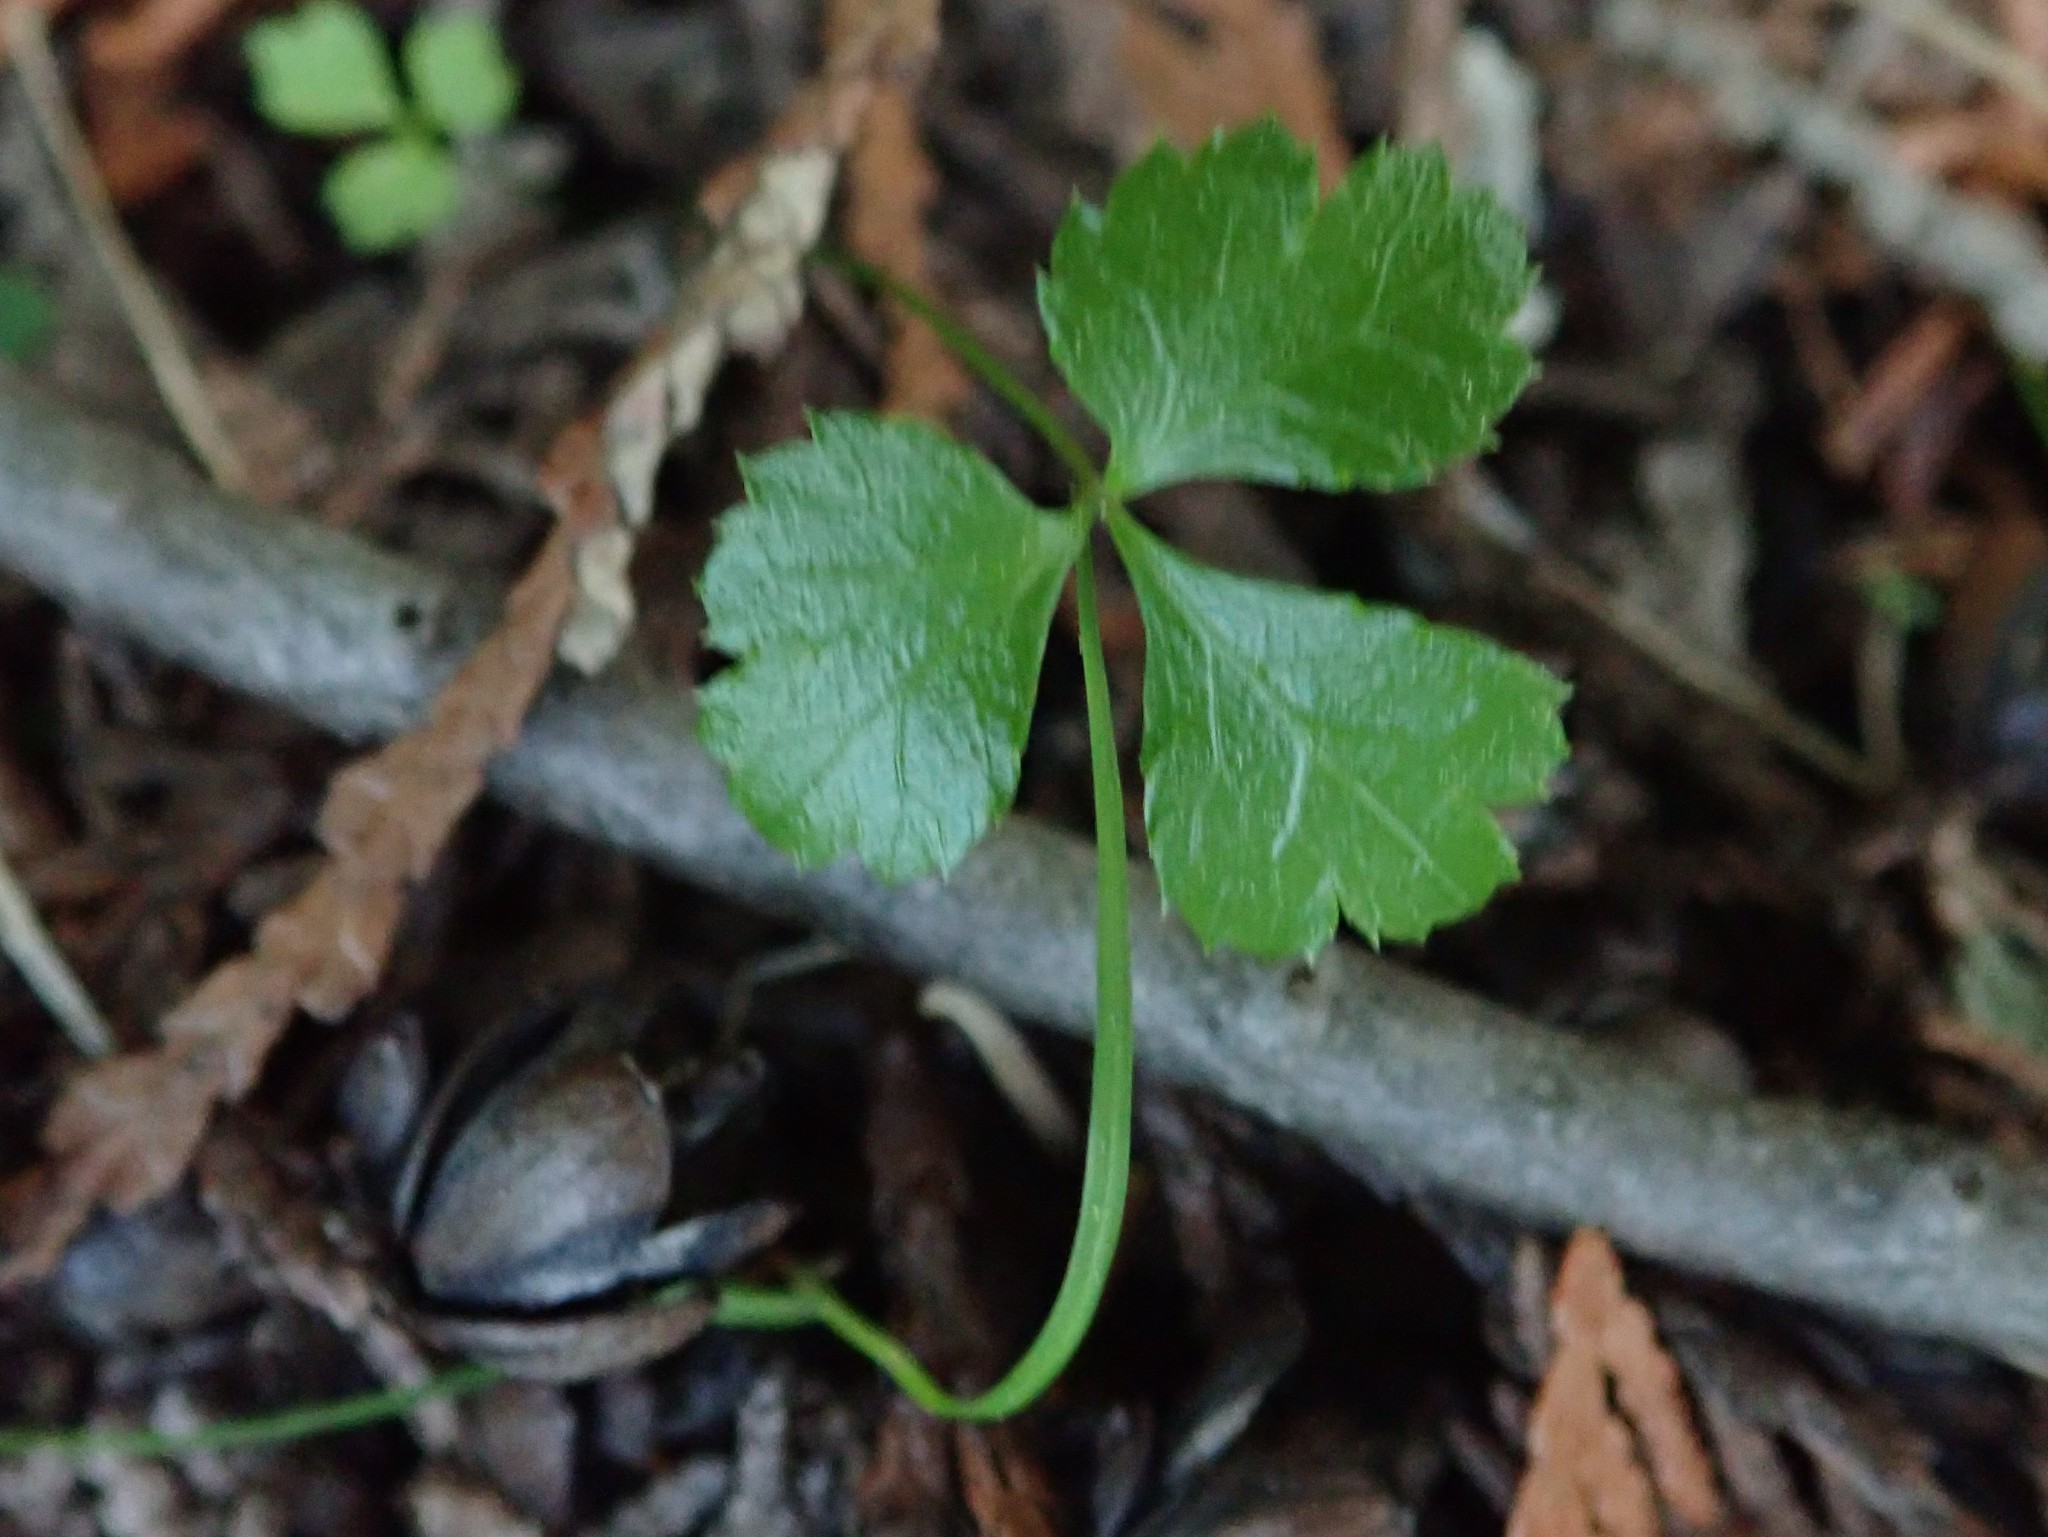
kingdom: Plantae
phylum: Tracheophyta
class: Magnoliopsida
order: Ranunculales
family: Ranunculaceae
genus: Coptis
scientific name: Coptis trifolia
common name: Canker-root
